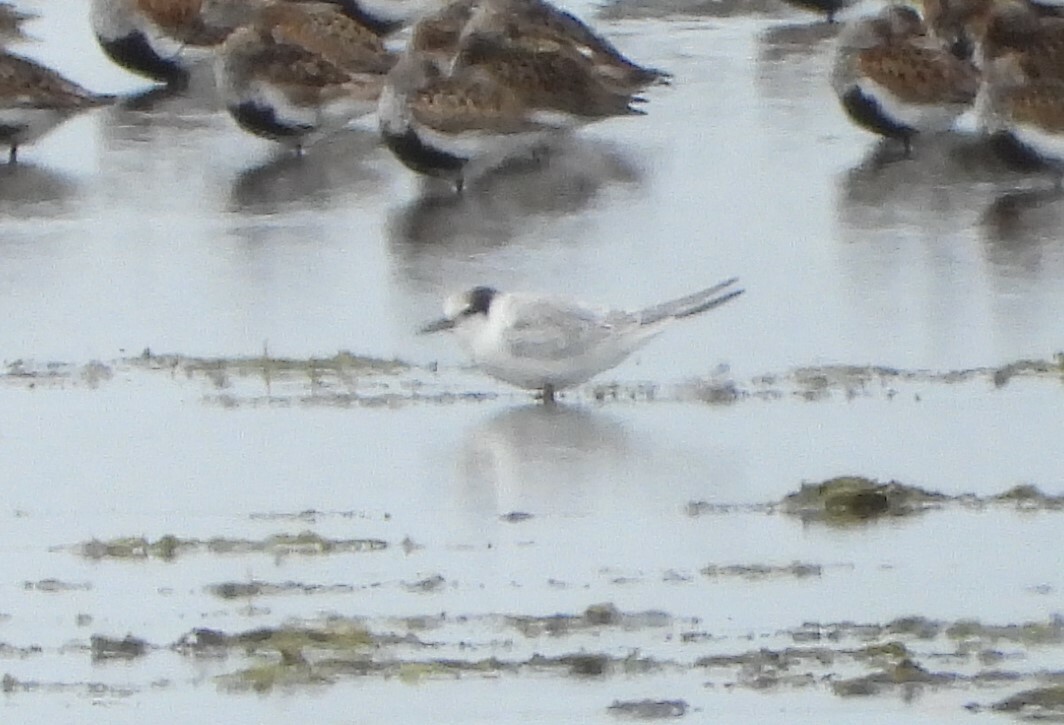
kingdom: Animalia
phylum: Chordata
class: Aves
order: Charadriiformes
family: Laridae
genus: Sternula
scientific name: Sternula albifrons
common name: Little tern
